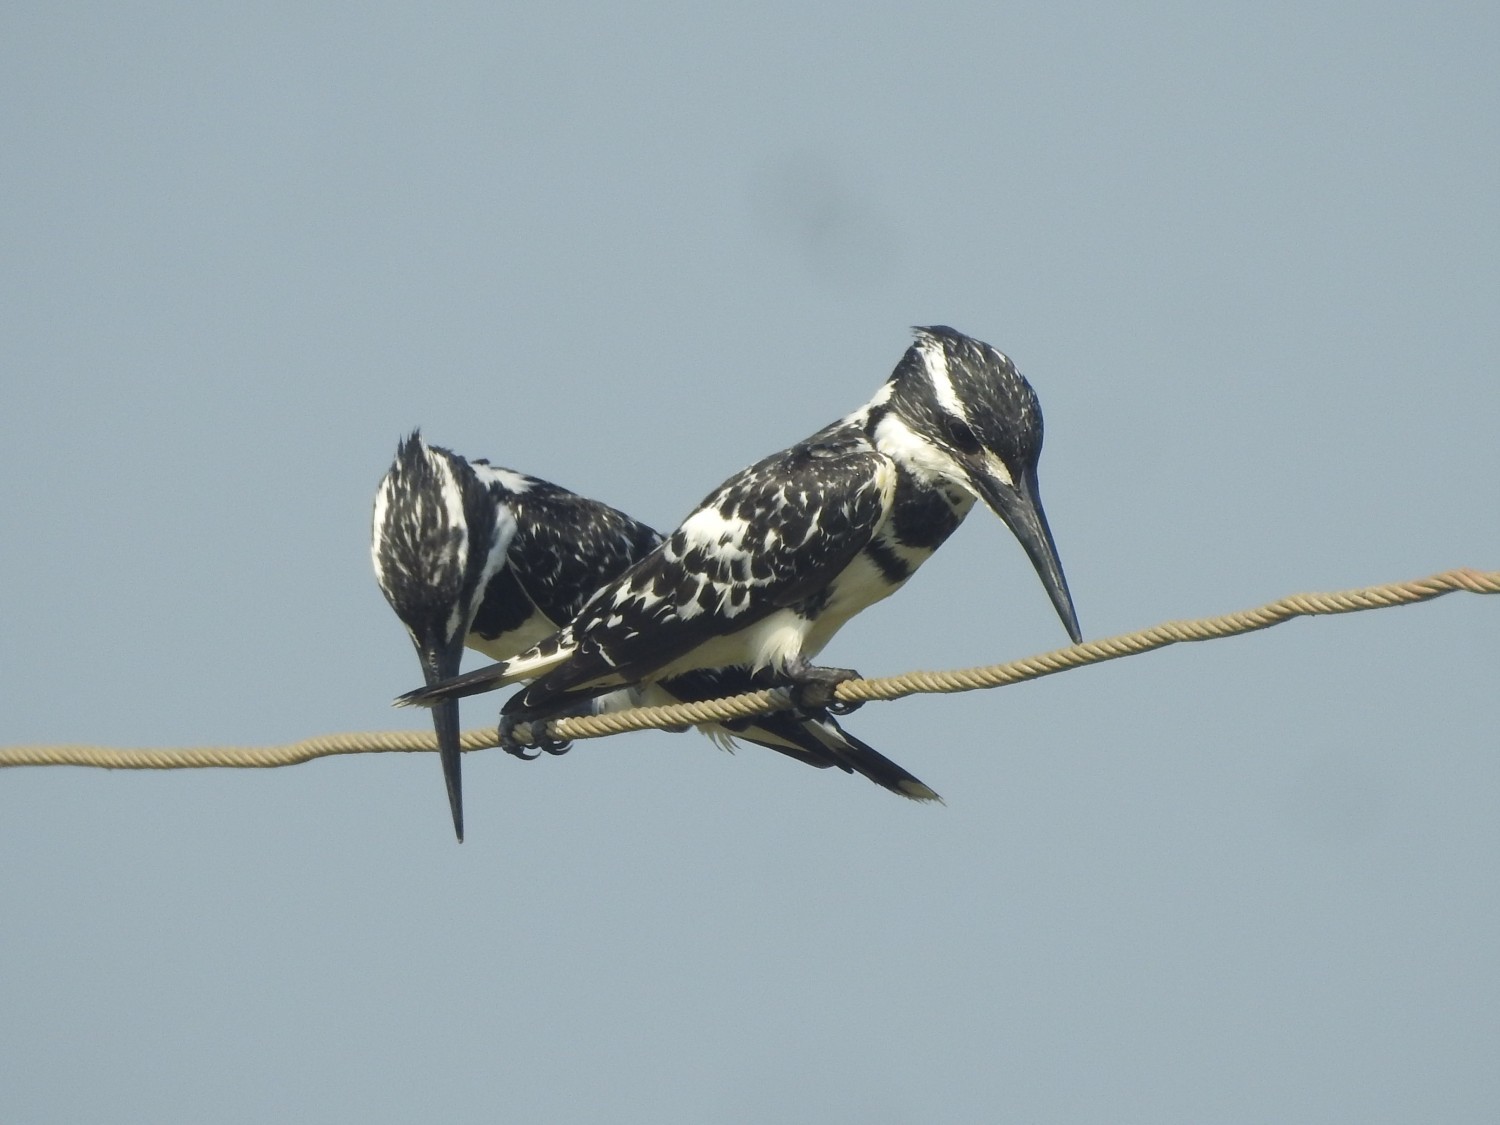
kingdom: Animalia
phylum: Chordata
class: Aves
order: Coraciiformes
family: Alcedinidae
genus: Ceryle
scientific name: Ceryle rudis
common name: Pied kingfisher
